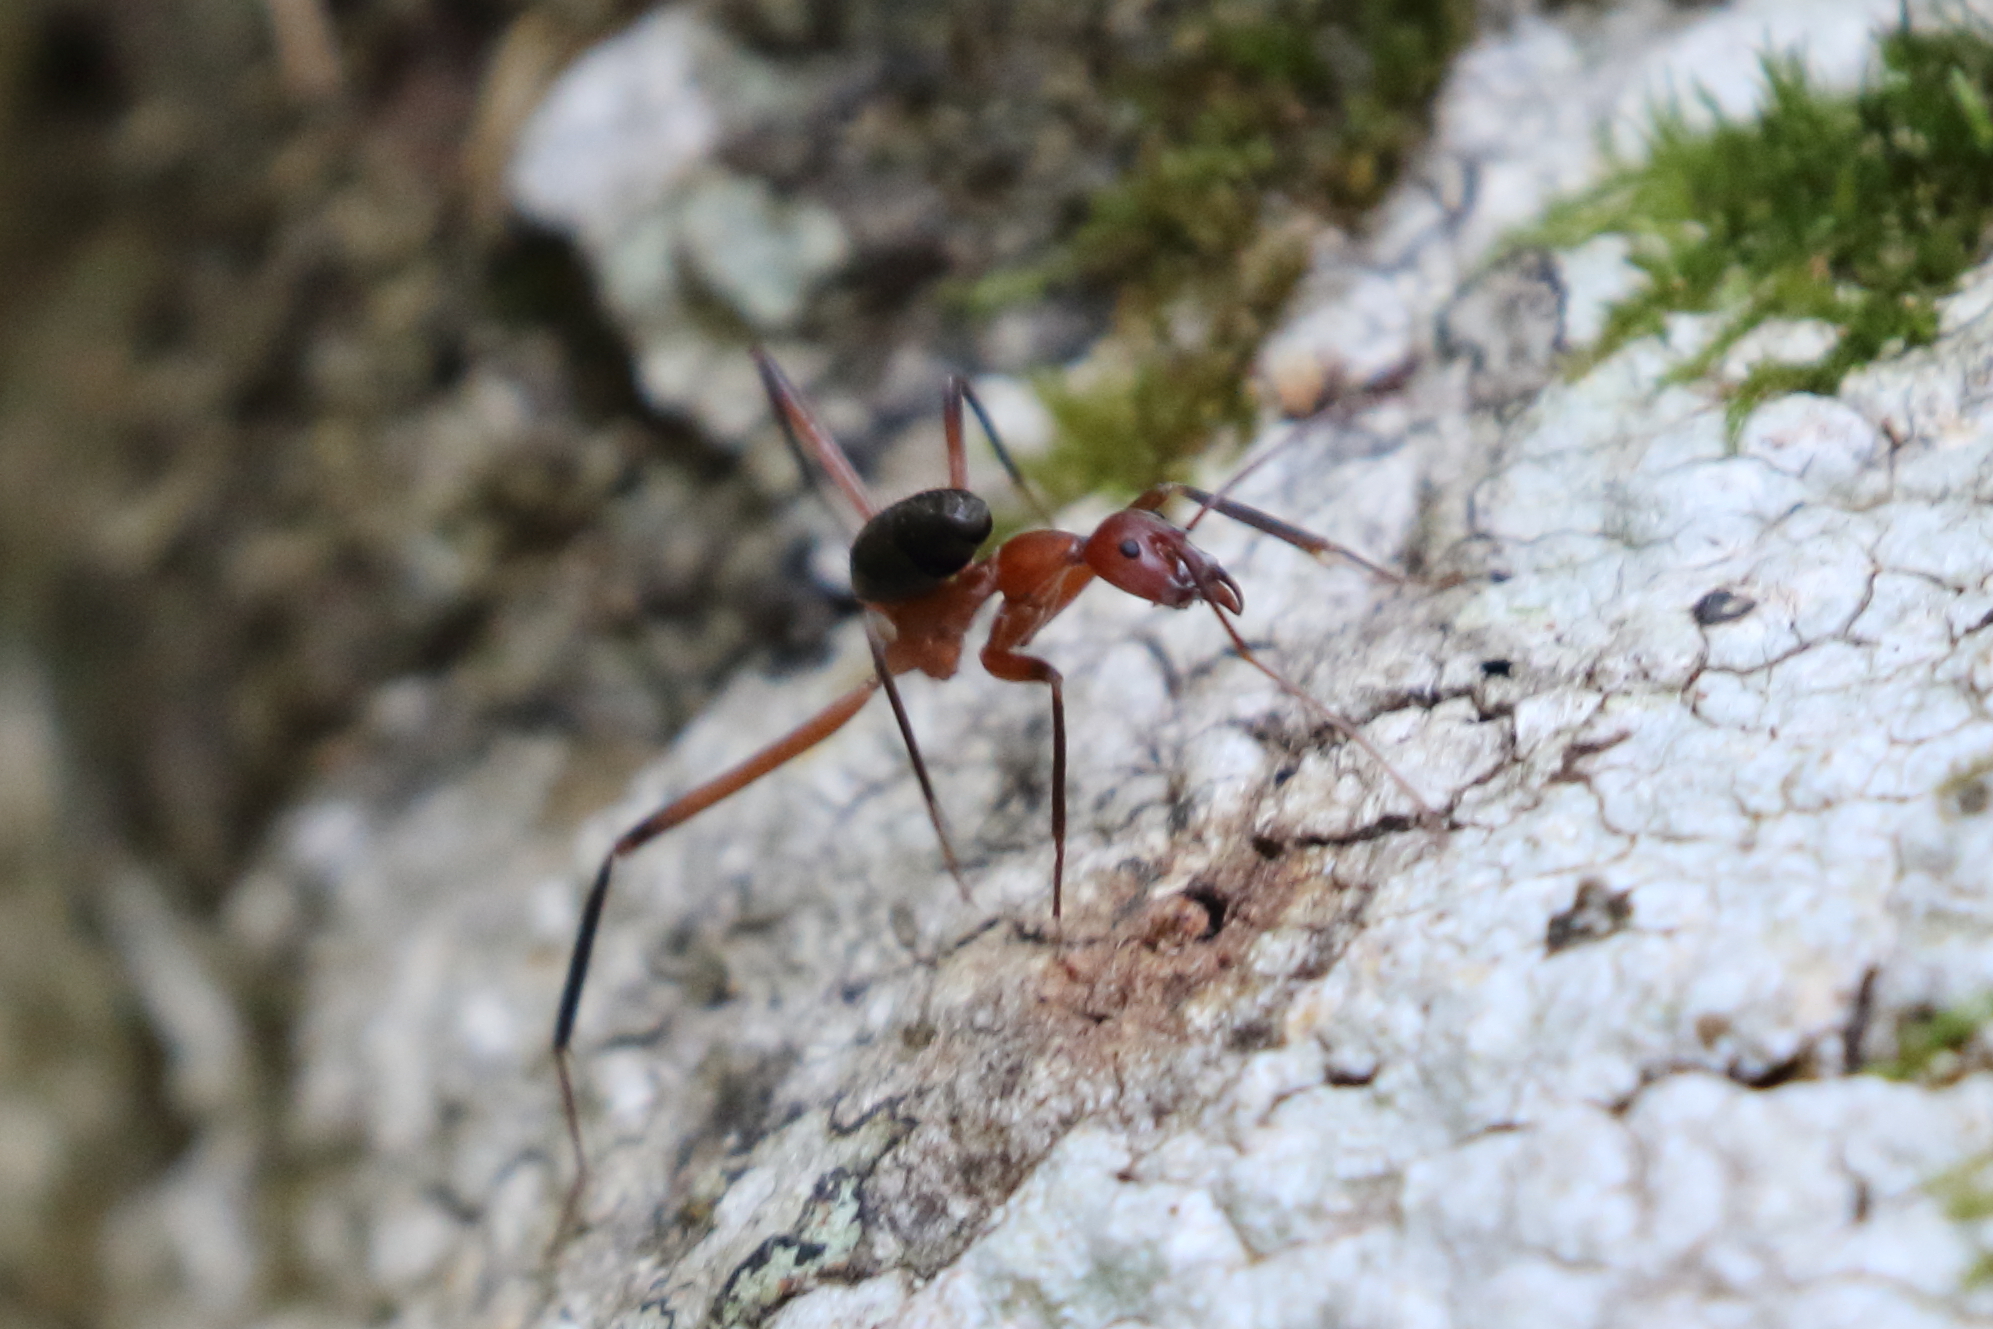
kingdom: Animalia
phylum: Arthropoda
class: Insecta
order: Hymenoptera
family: Formicidae
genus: Leptomyrmex
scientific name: Leptomyrmex tibialis
